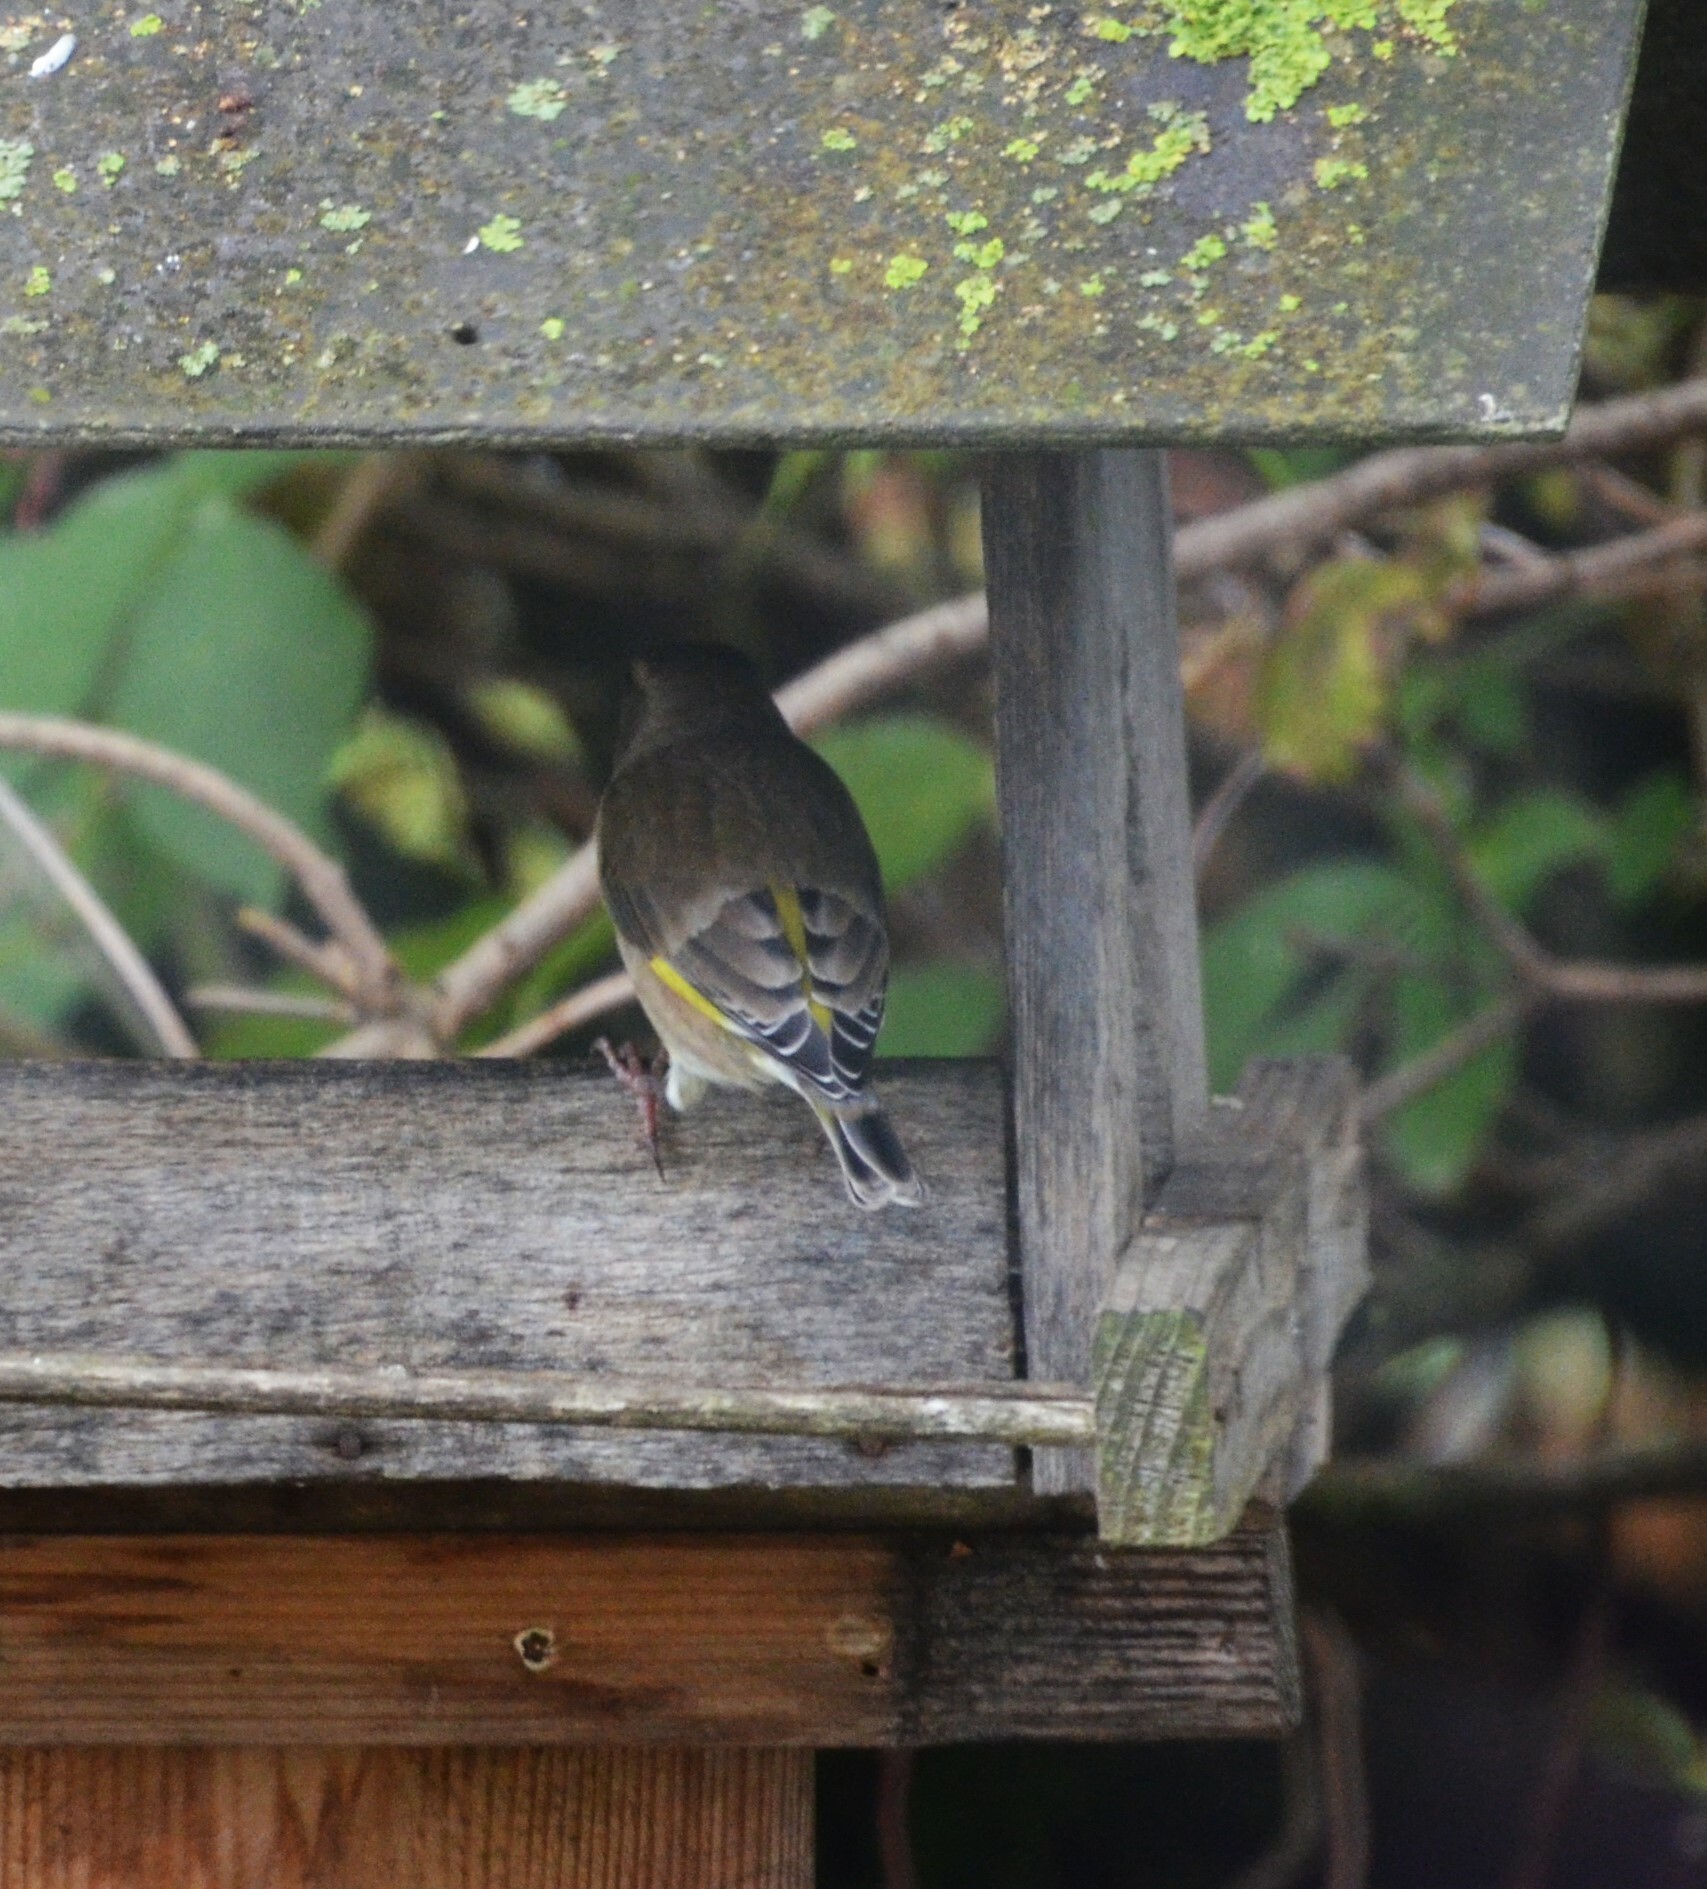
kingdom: Plantae
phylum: Tracheophyta
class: Liliopsida
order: Poales
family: Poaceae
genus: Chloris
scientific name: Chloris chloris
